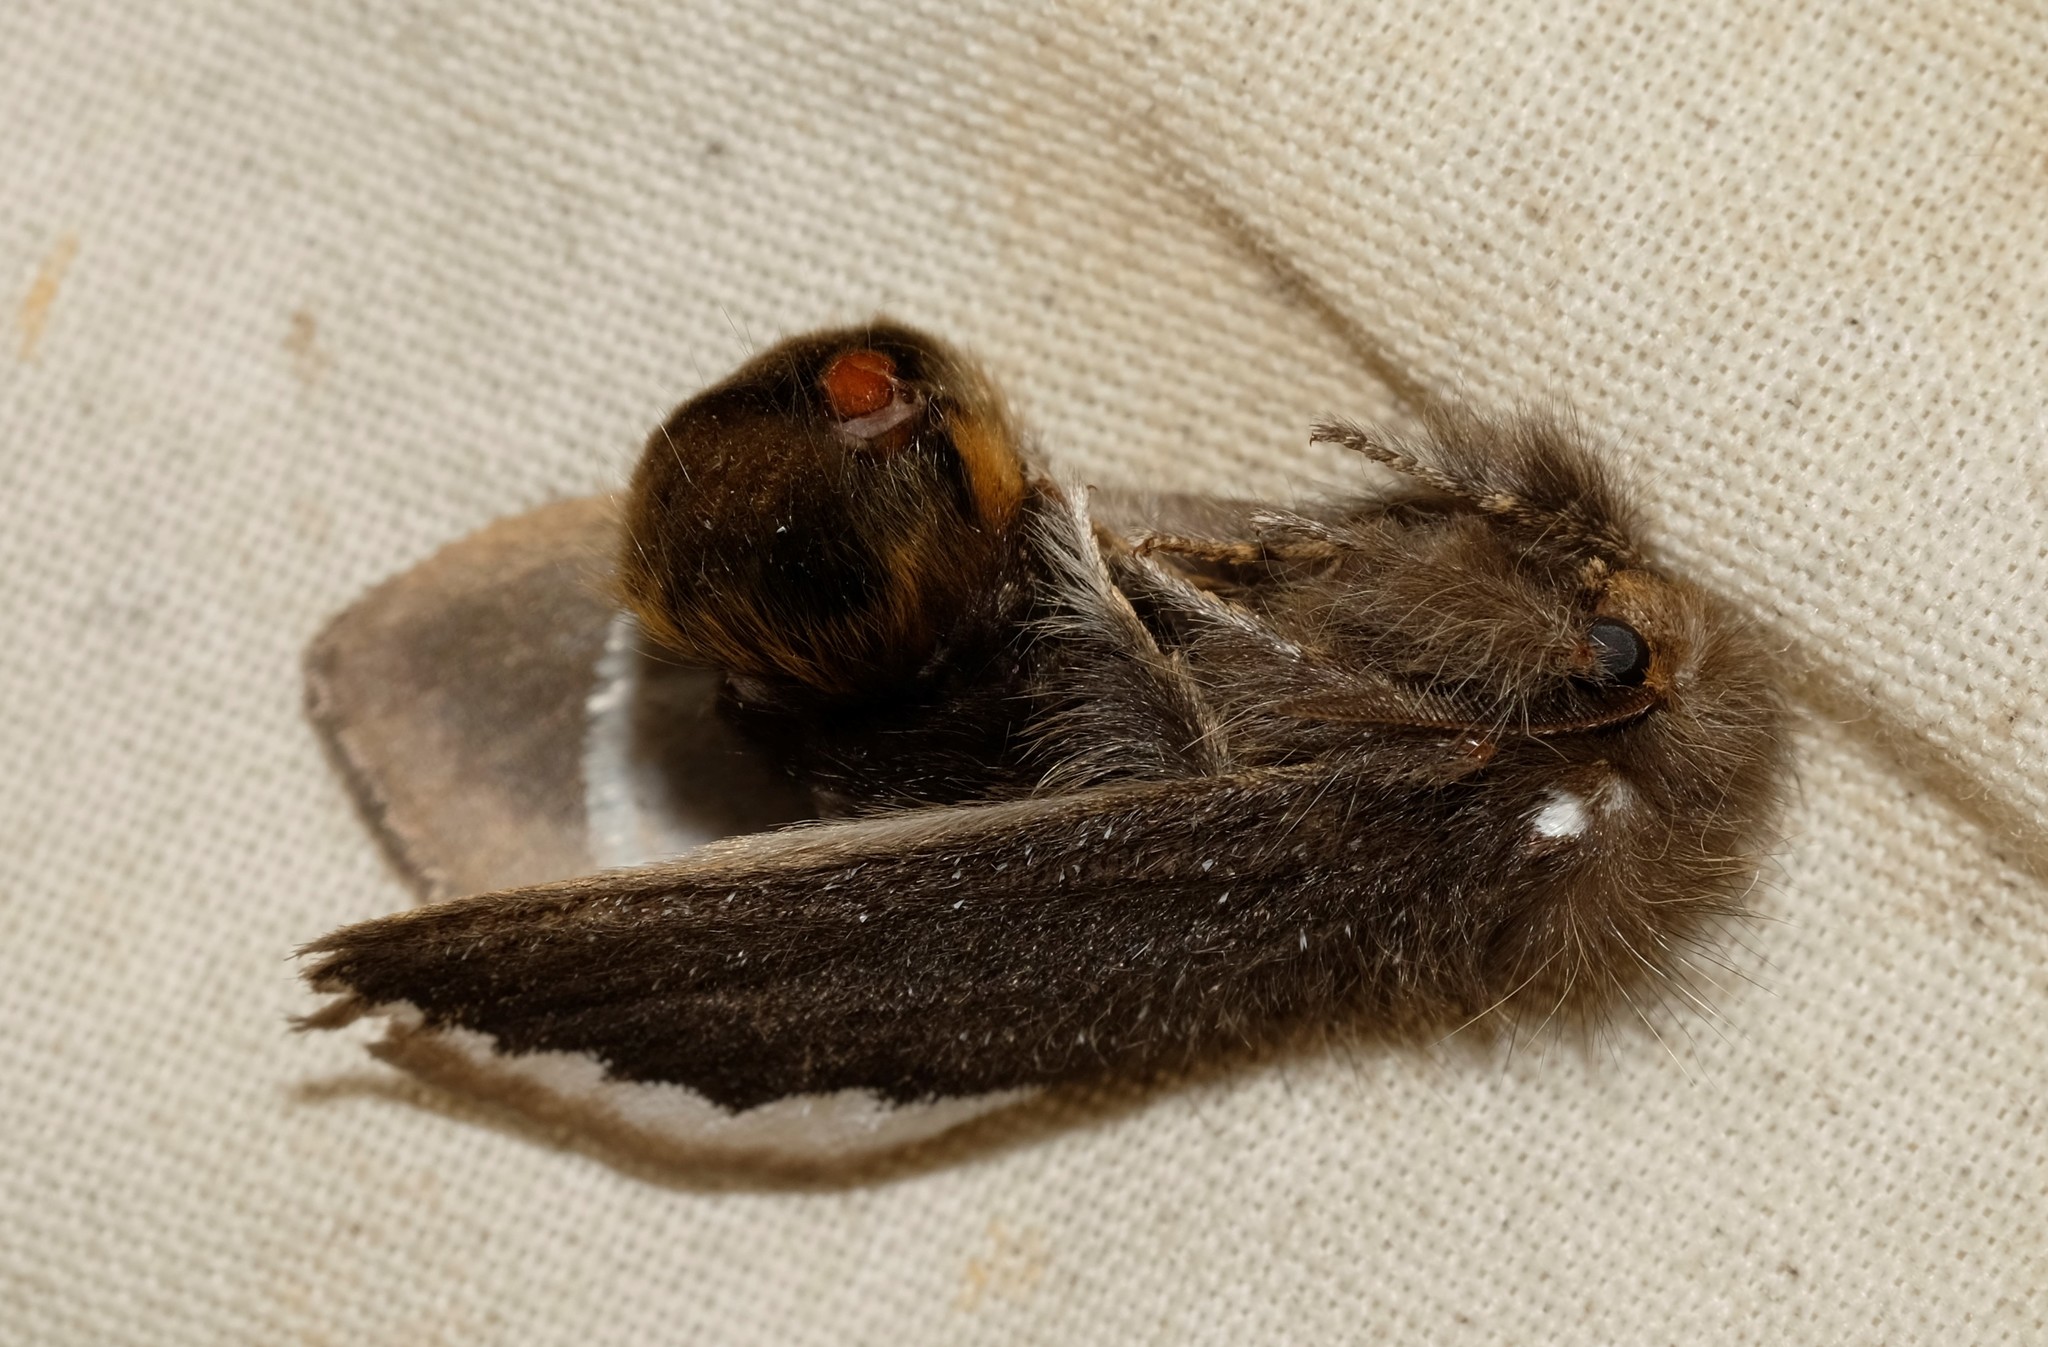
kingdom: Animalia
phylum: Arthropoda
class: Insecta
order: Lepidoptera
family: Erebidae
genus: Euproctis
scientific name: Euproctis
